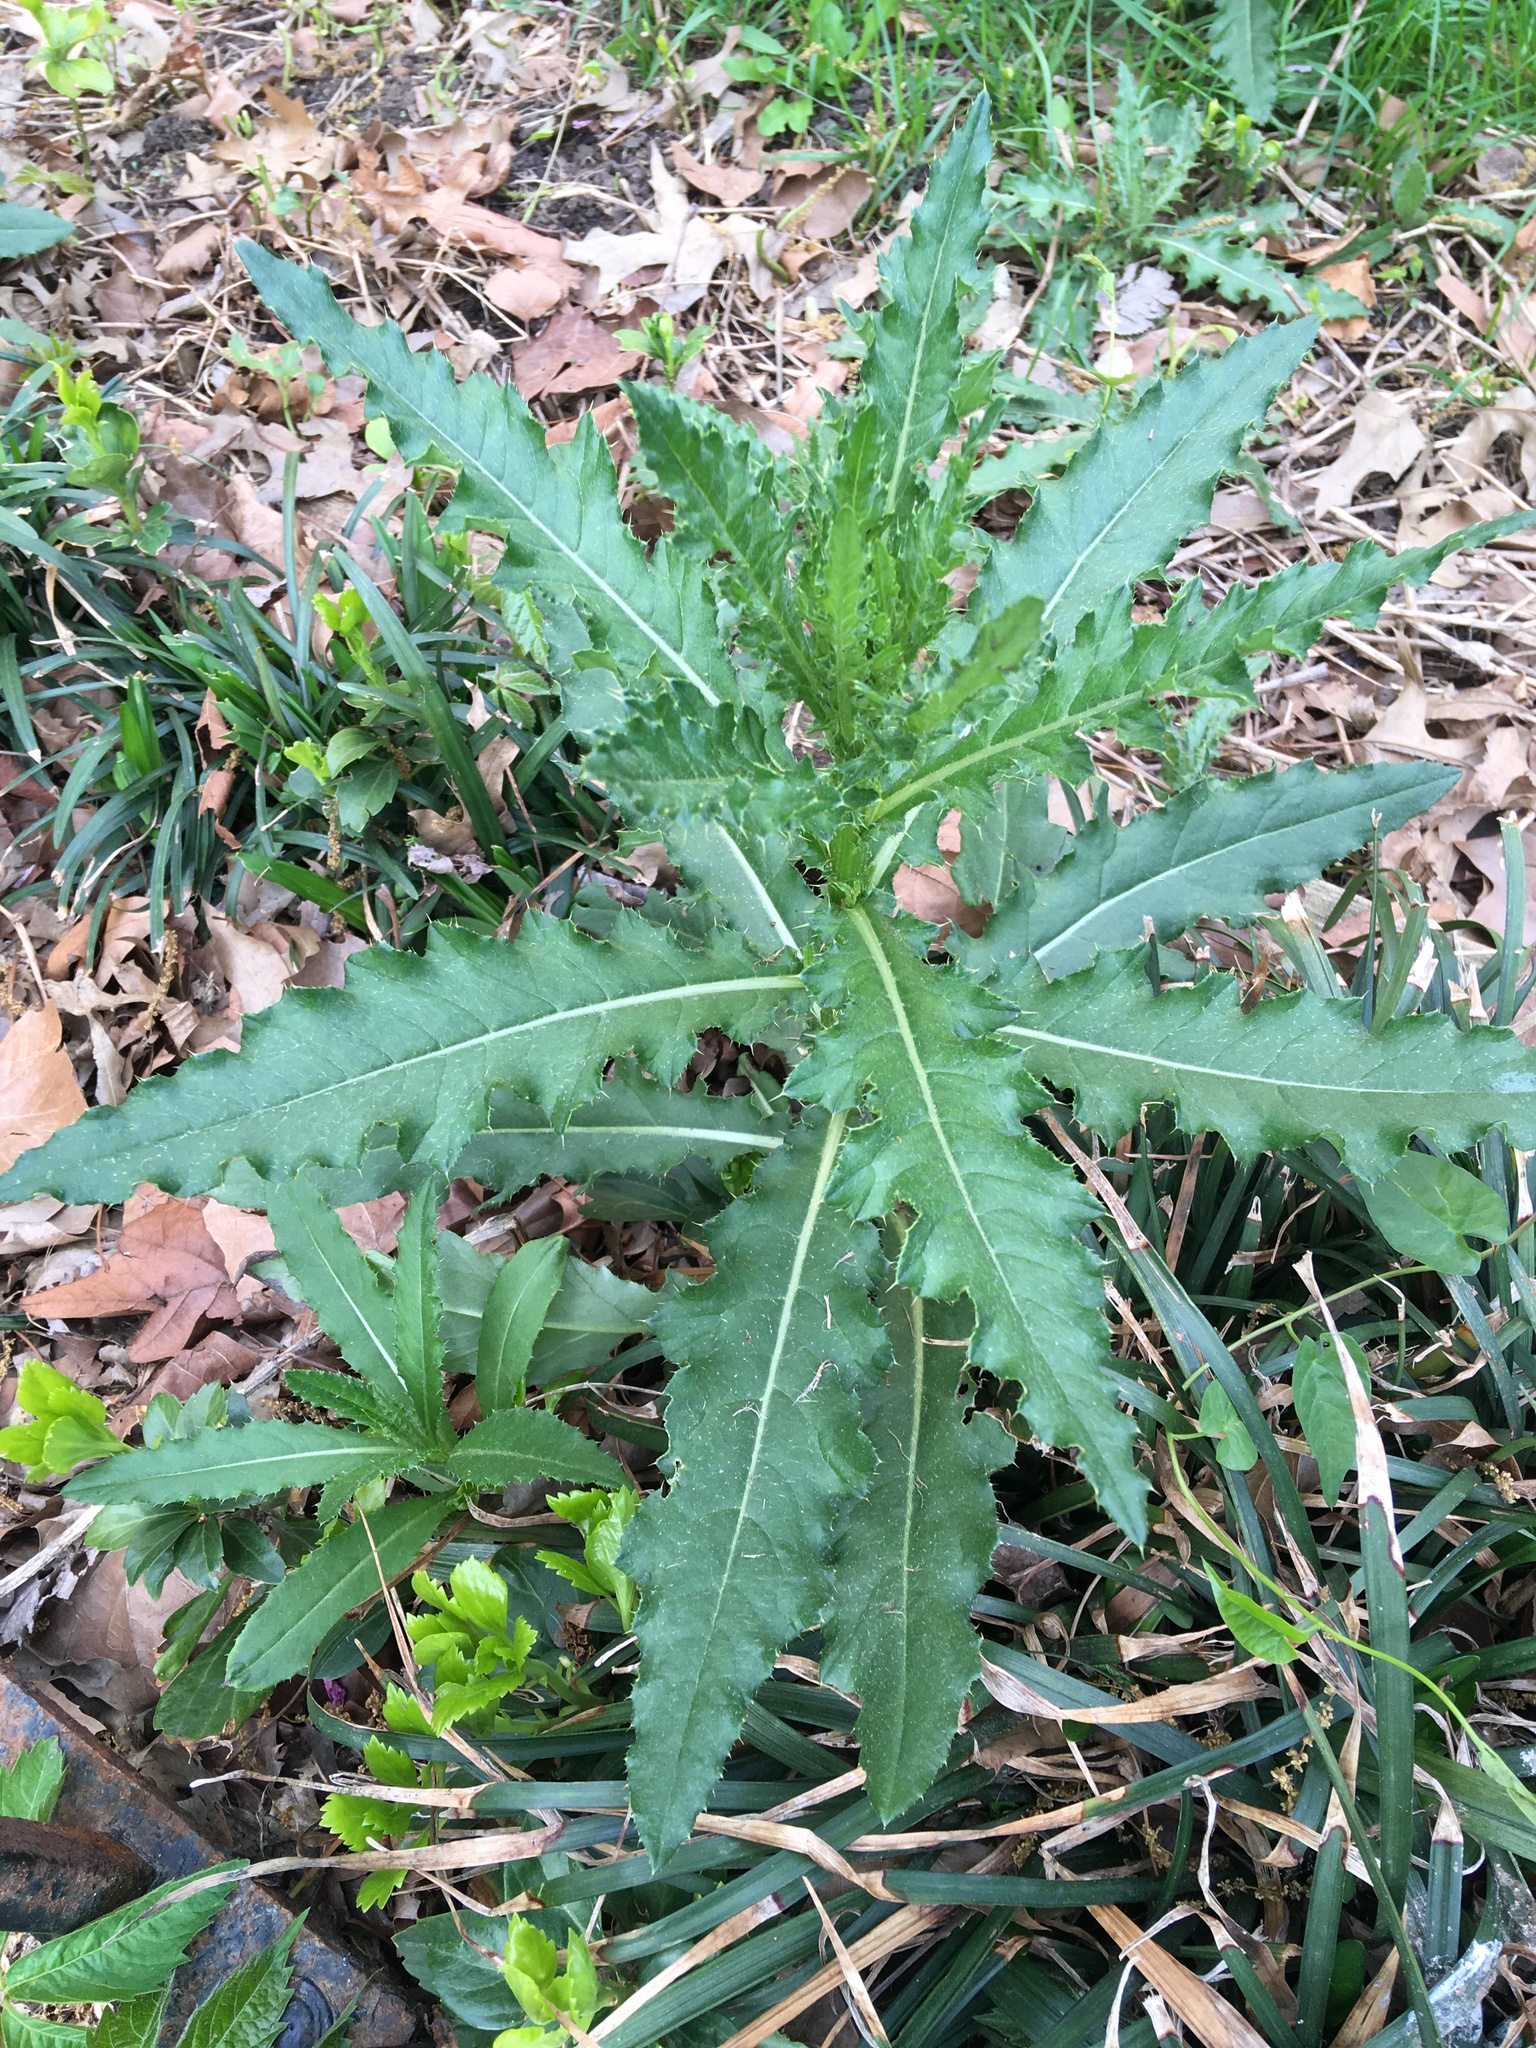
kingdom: Plantae
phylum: Tracheophyta
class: Magnoliopsida
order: Asterales
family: Asteraceae
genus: Cirsium
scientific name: Cirsium arvense
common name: Creeping thistle
